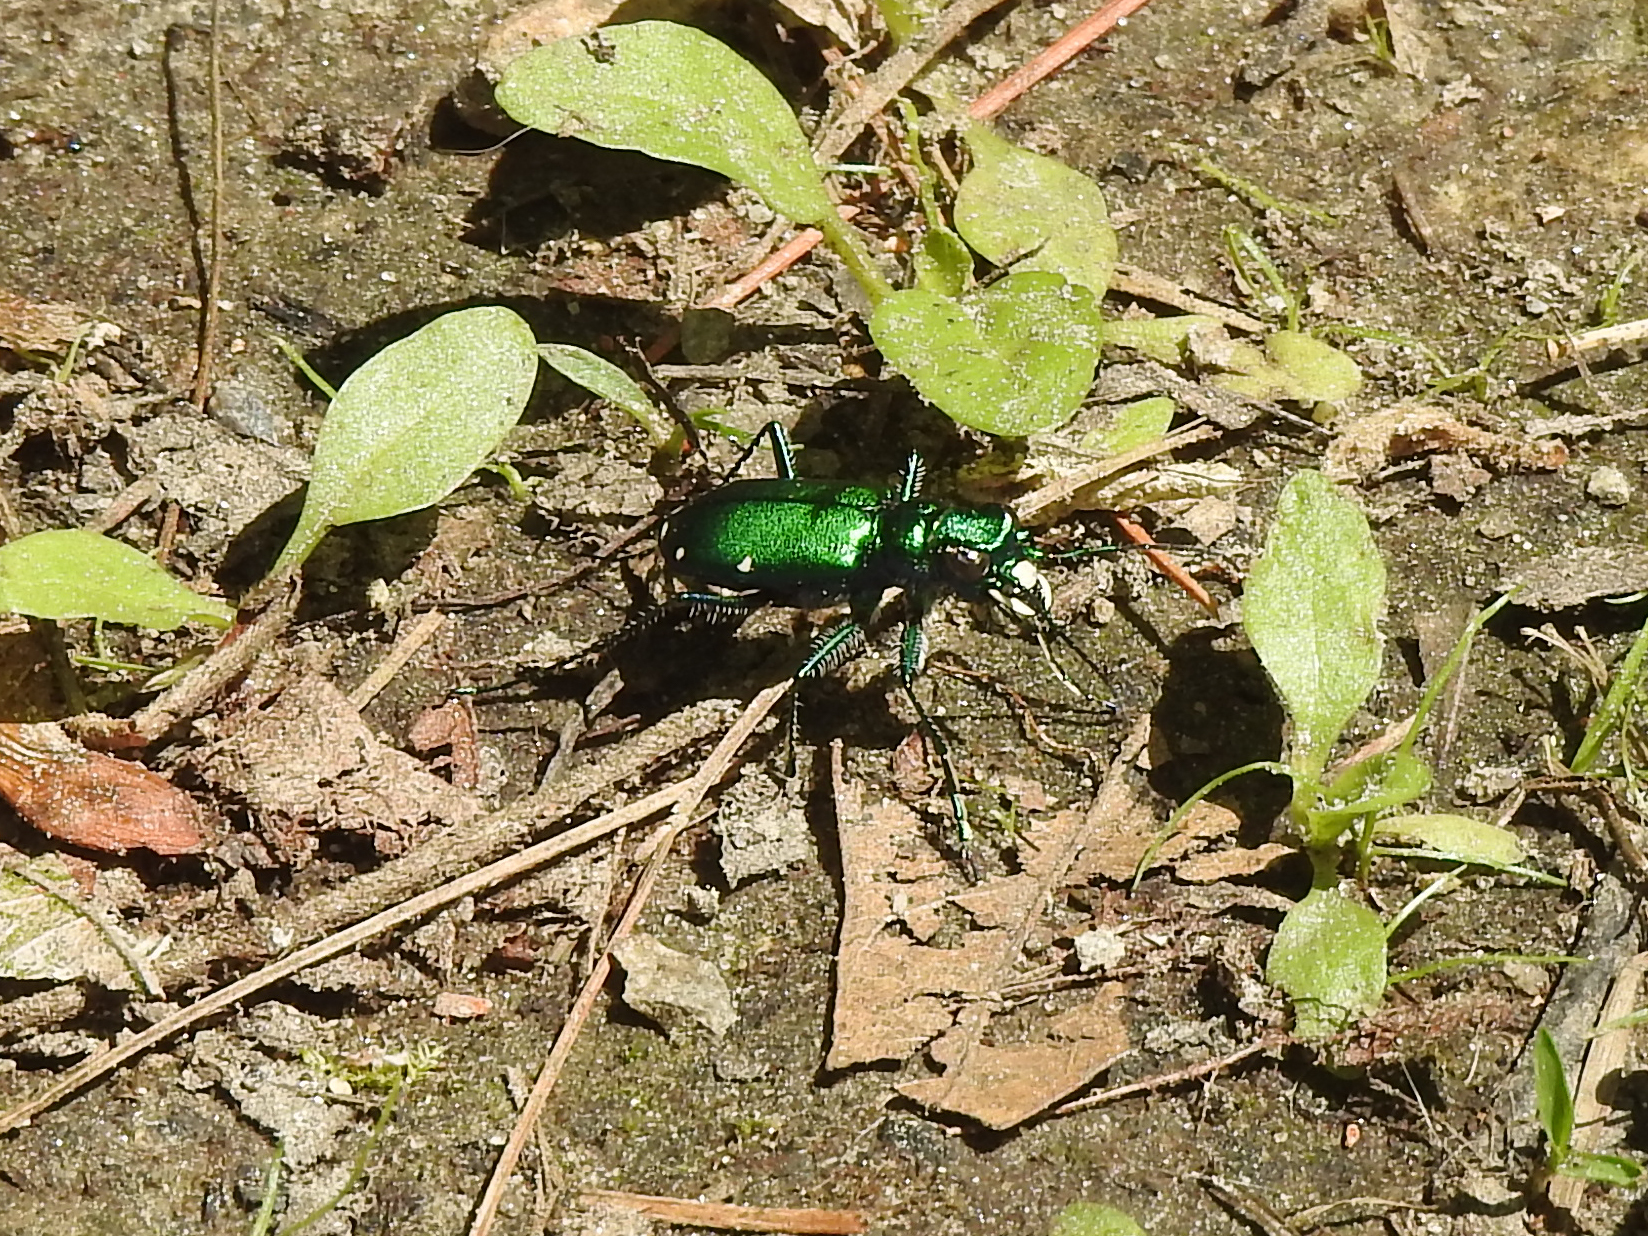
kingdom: Animalia
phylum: Arthropoda
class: Insecta
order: Coleoptera
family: Carabidae
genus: Cicindela
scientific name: Cicindela sexguttata
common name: Six-spotted tiger beetle
